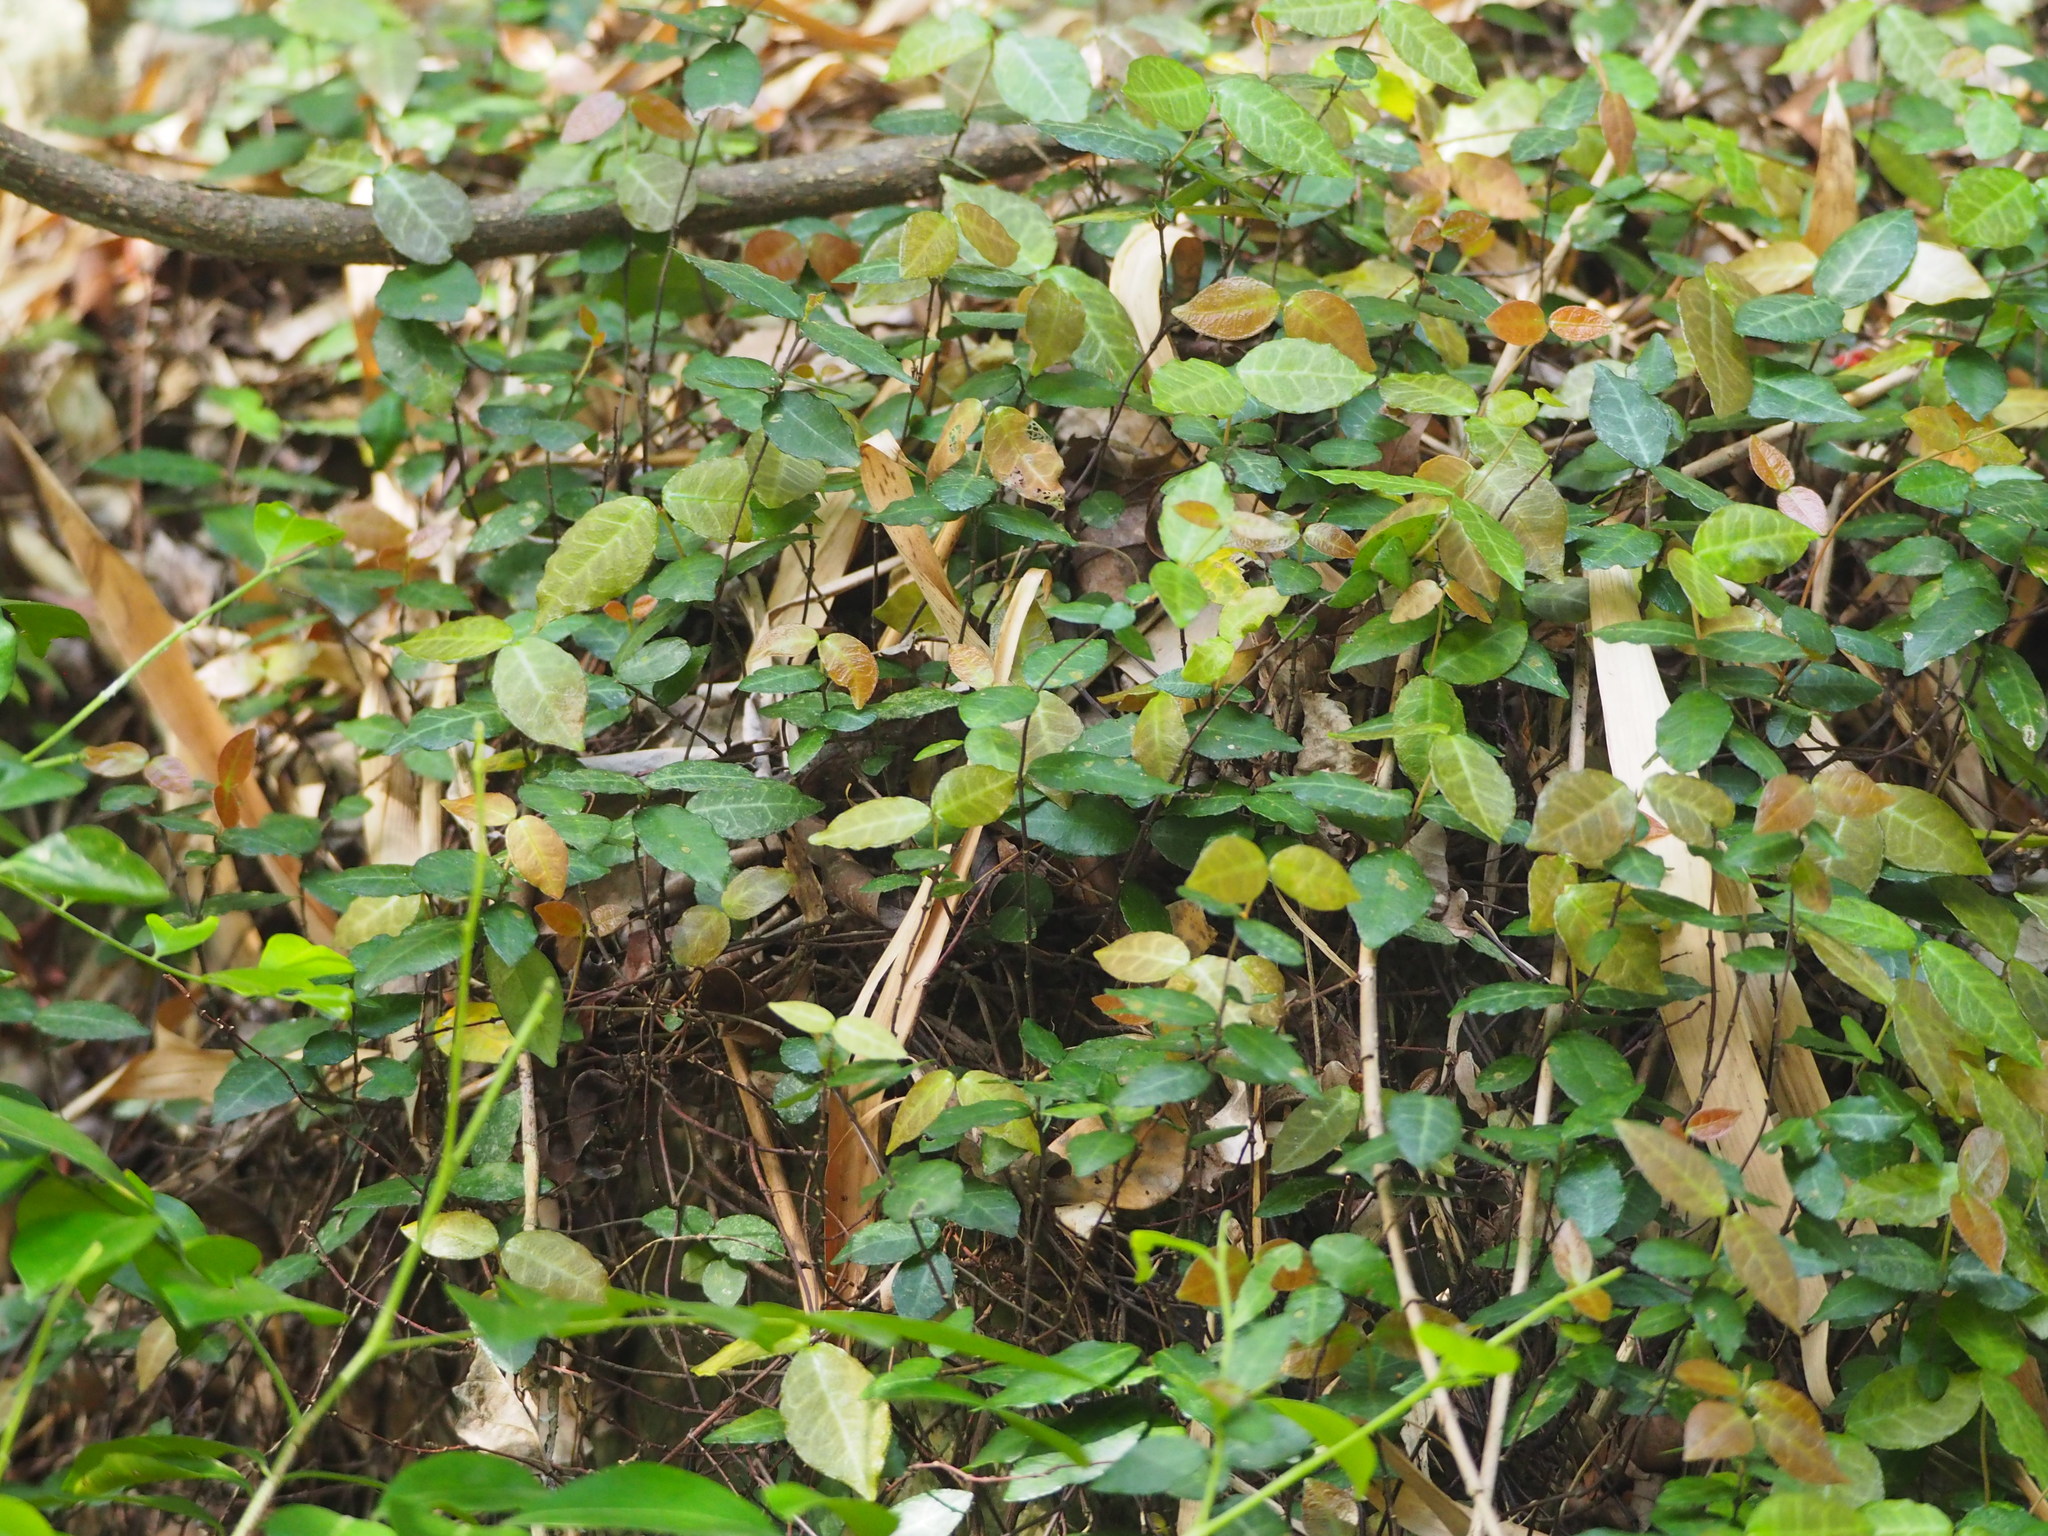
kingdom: Plantae
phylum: Tracheophyta
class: Magnoliopsida
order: Gentianales
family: Apocynaceae
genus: Trachelospermum
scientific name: Trachelospermum jasminoides
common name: Confederate jasmine
